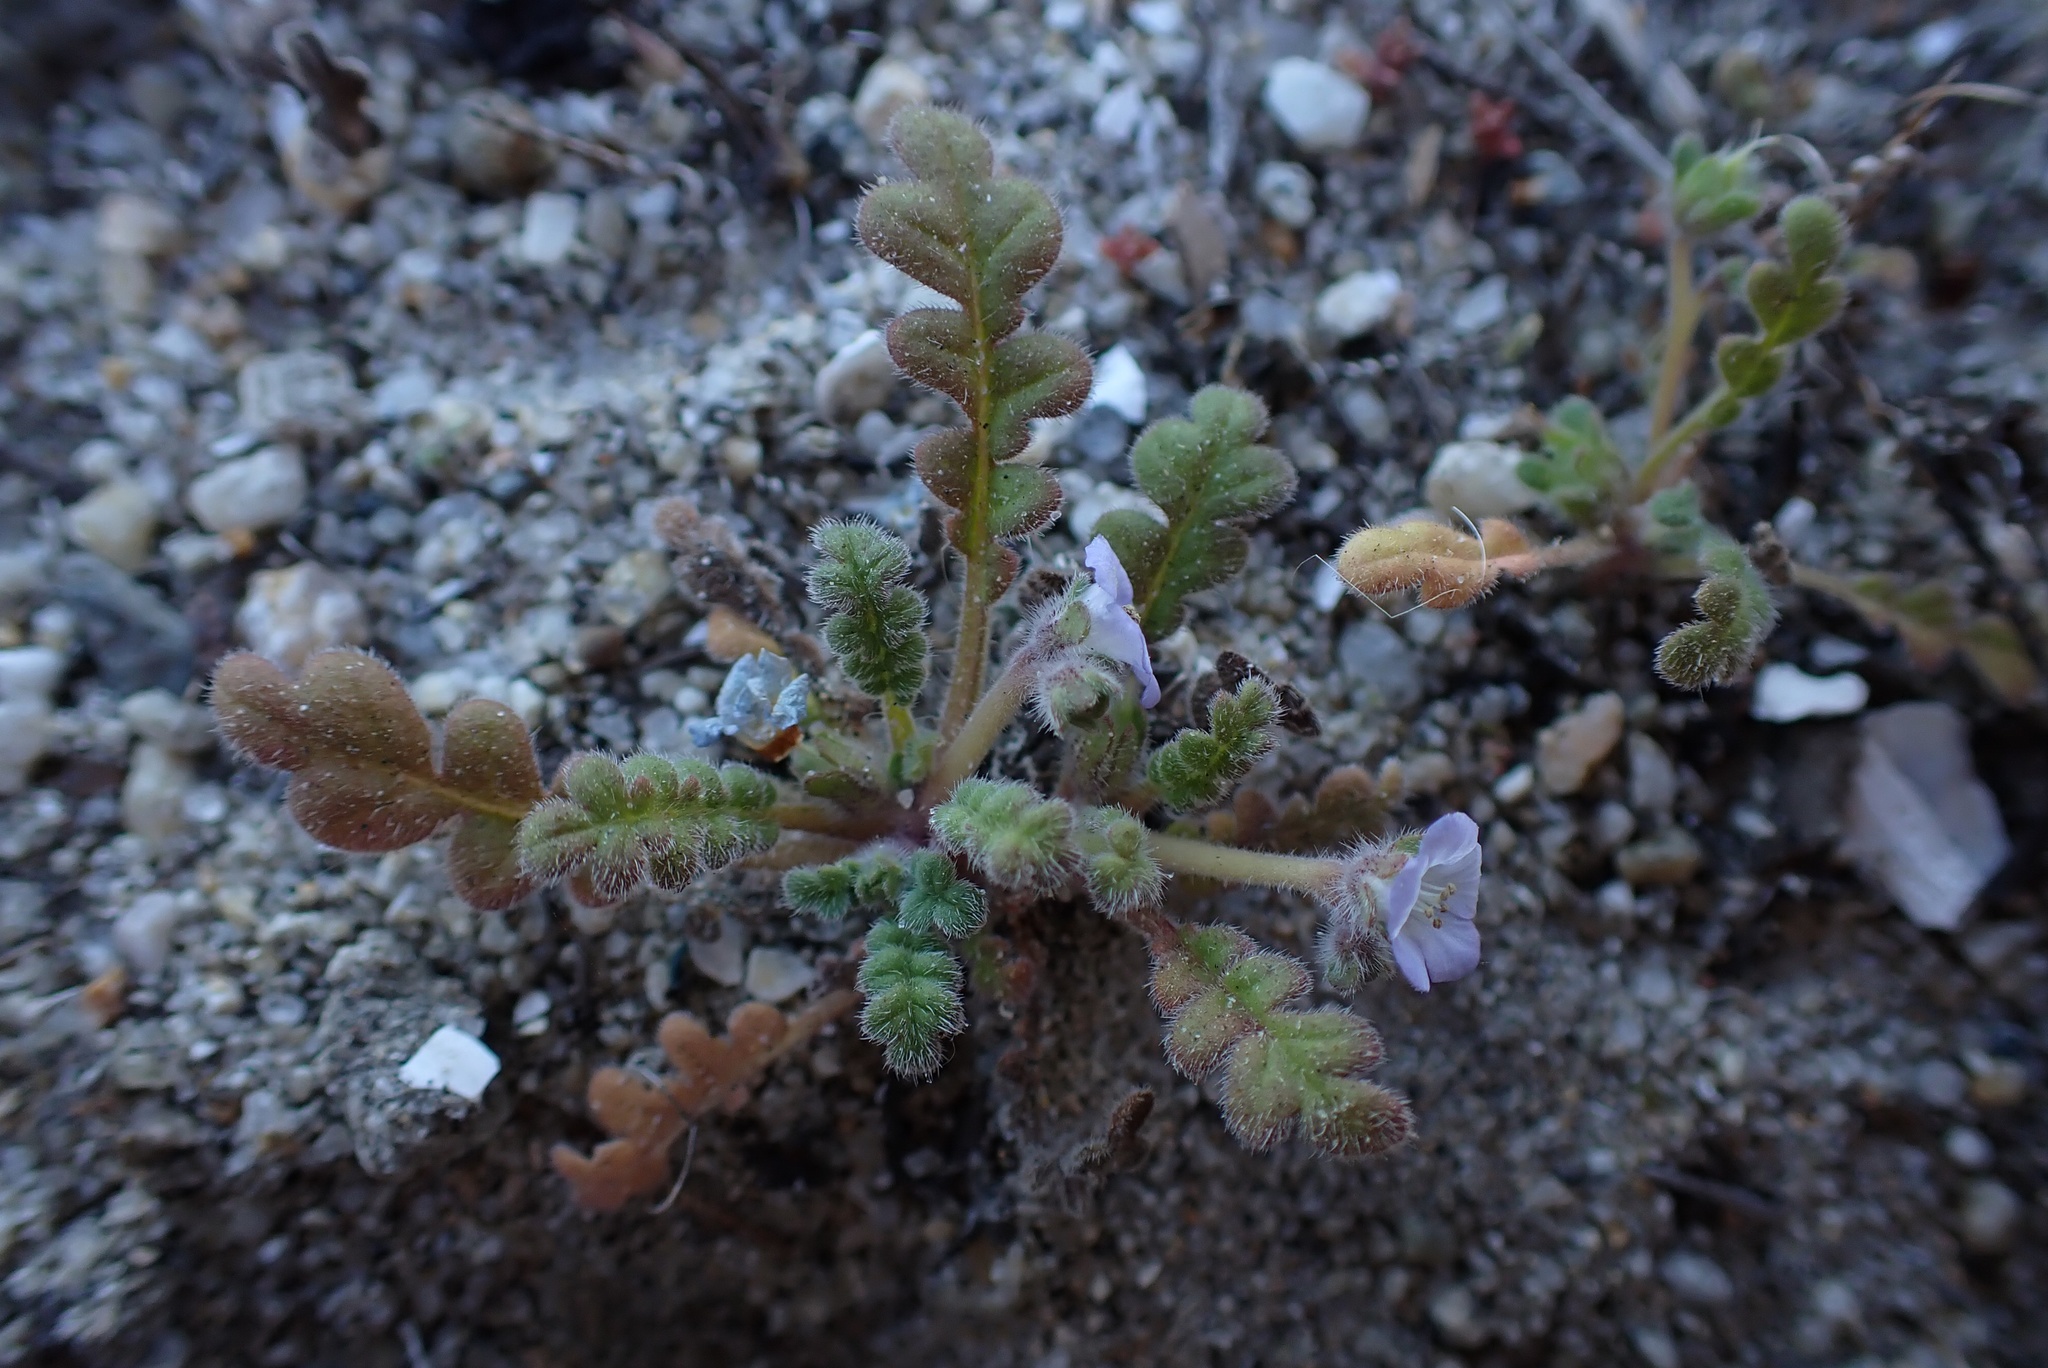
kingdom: Plantae
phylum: Tracheophyta
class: Magnoliopsida
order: Boraginales
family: Hydrophyllaceae
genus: Phacelia
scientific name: Phacelia stellaris
